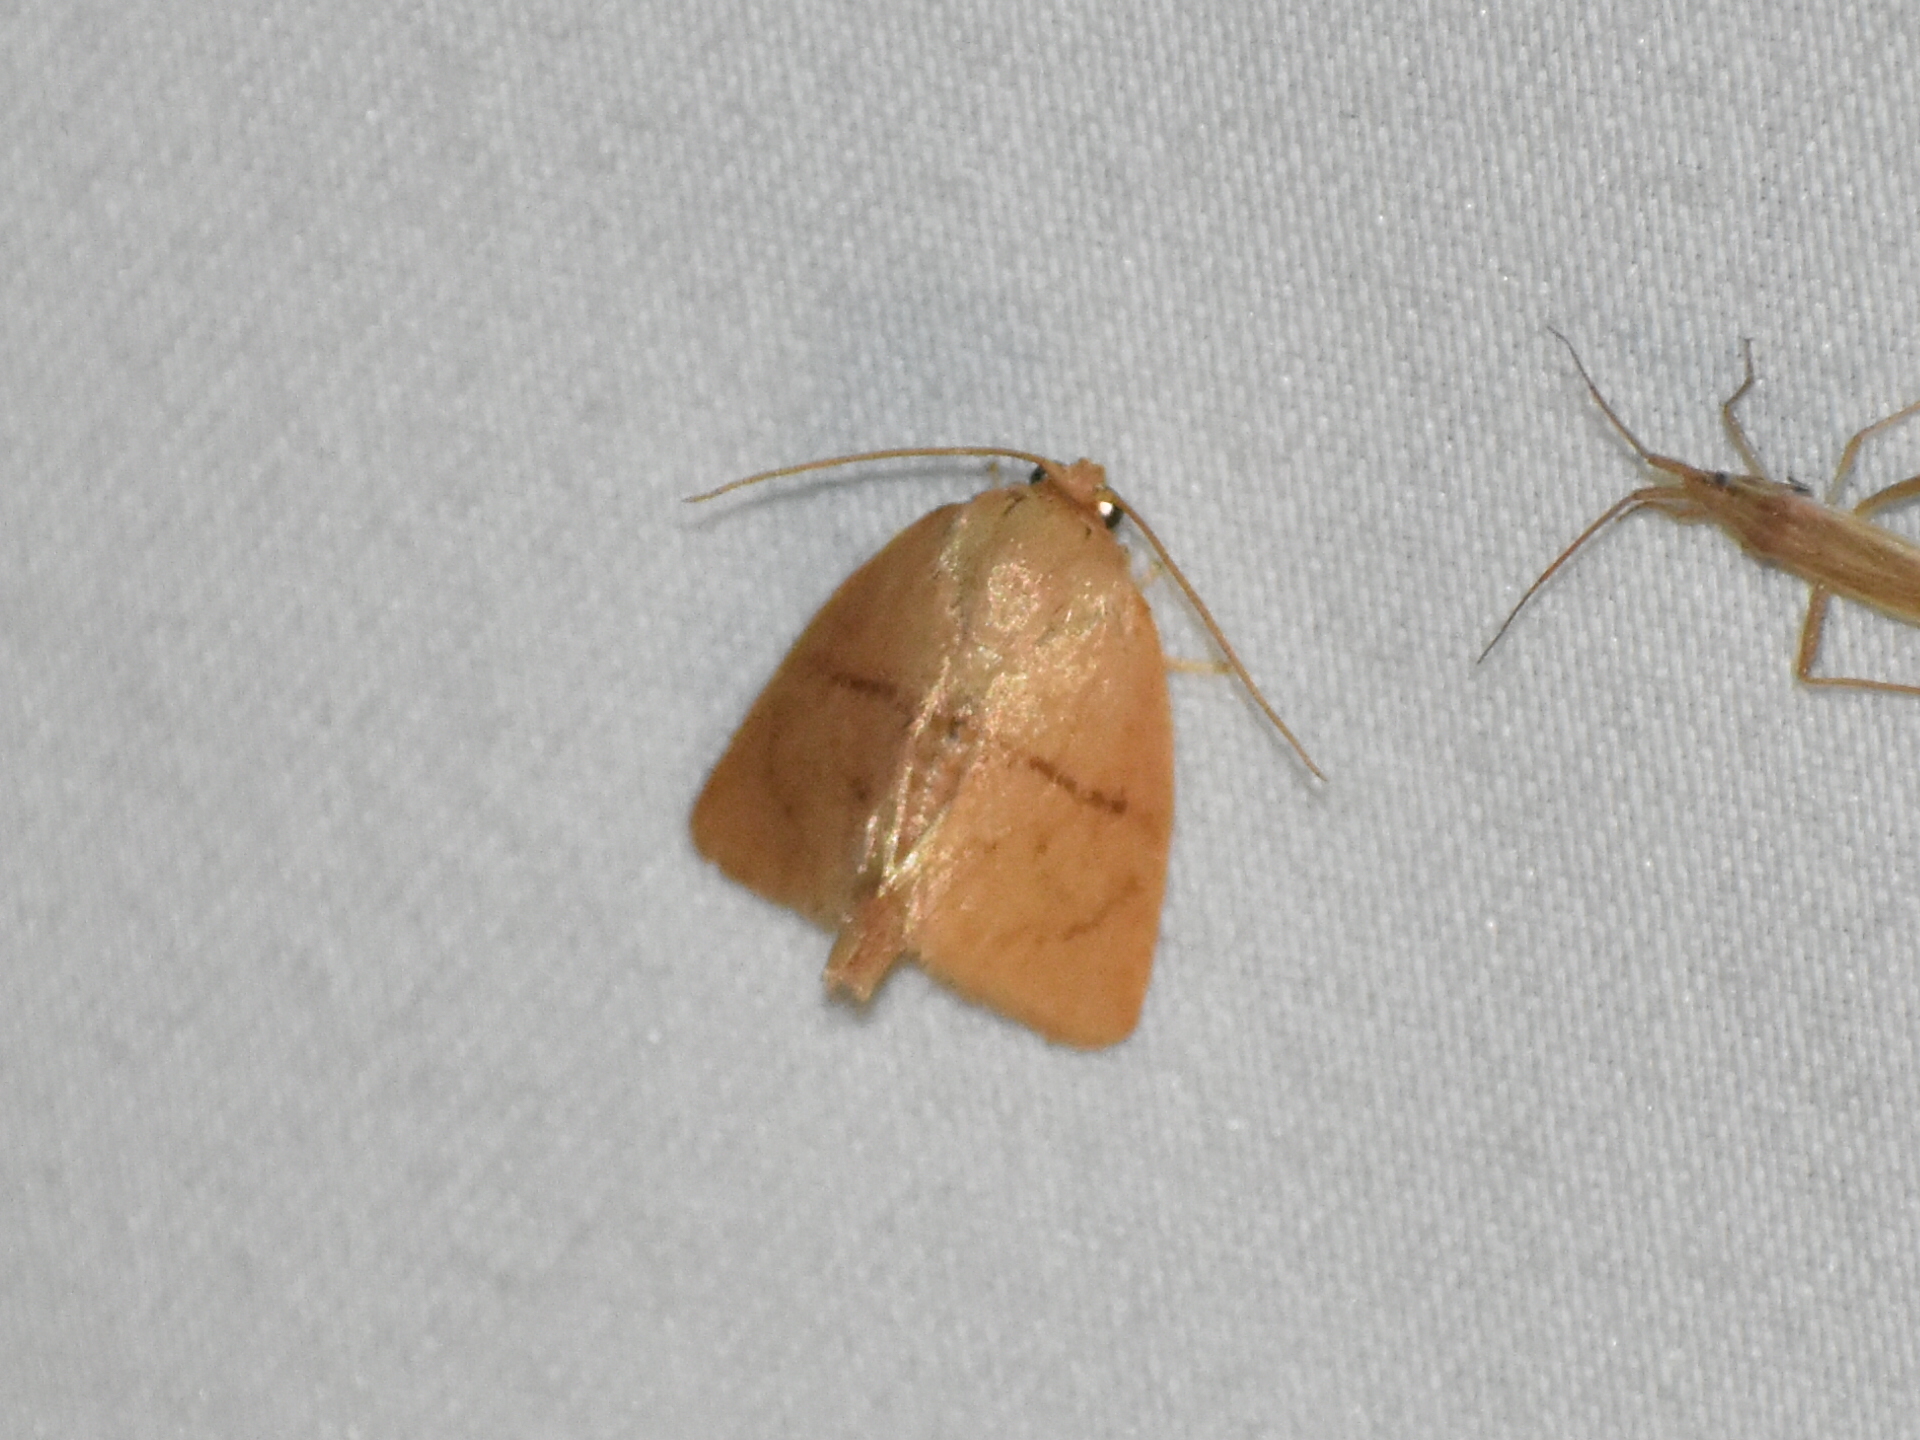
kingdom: Animalia
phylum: Arthropoda
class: Insecta
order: Lepidoptera
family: Limacodidae
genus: Tortricidia
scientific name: Tortricidia flexuosa
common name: Abbreviated button slug moth
